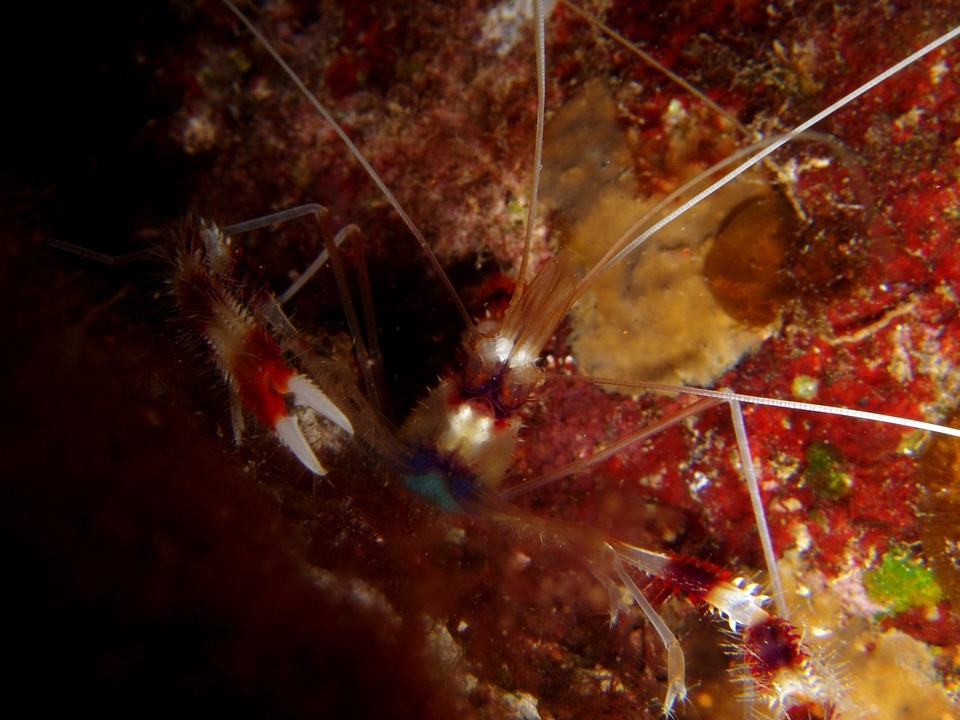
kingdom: Animalia
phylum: Arthropoda
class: Malacostraca
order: Decapoda
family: Stenopodidae
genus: Stenopus
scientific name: Stenopus hispidus
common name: Banded coral shrimp
